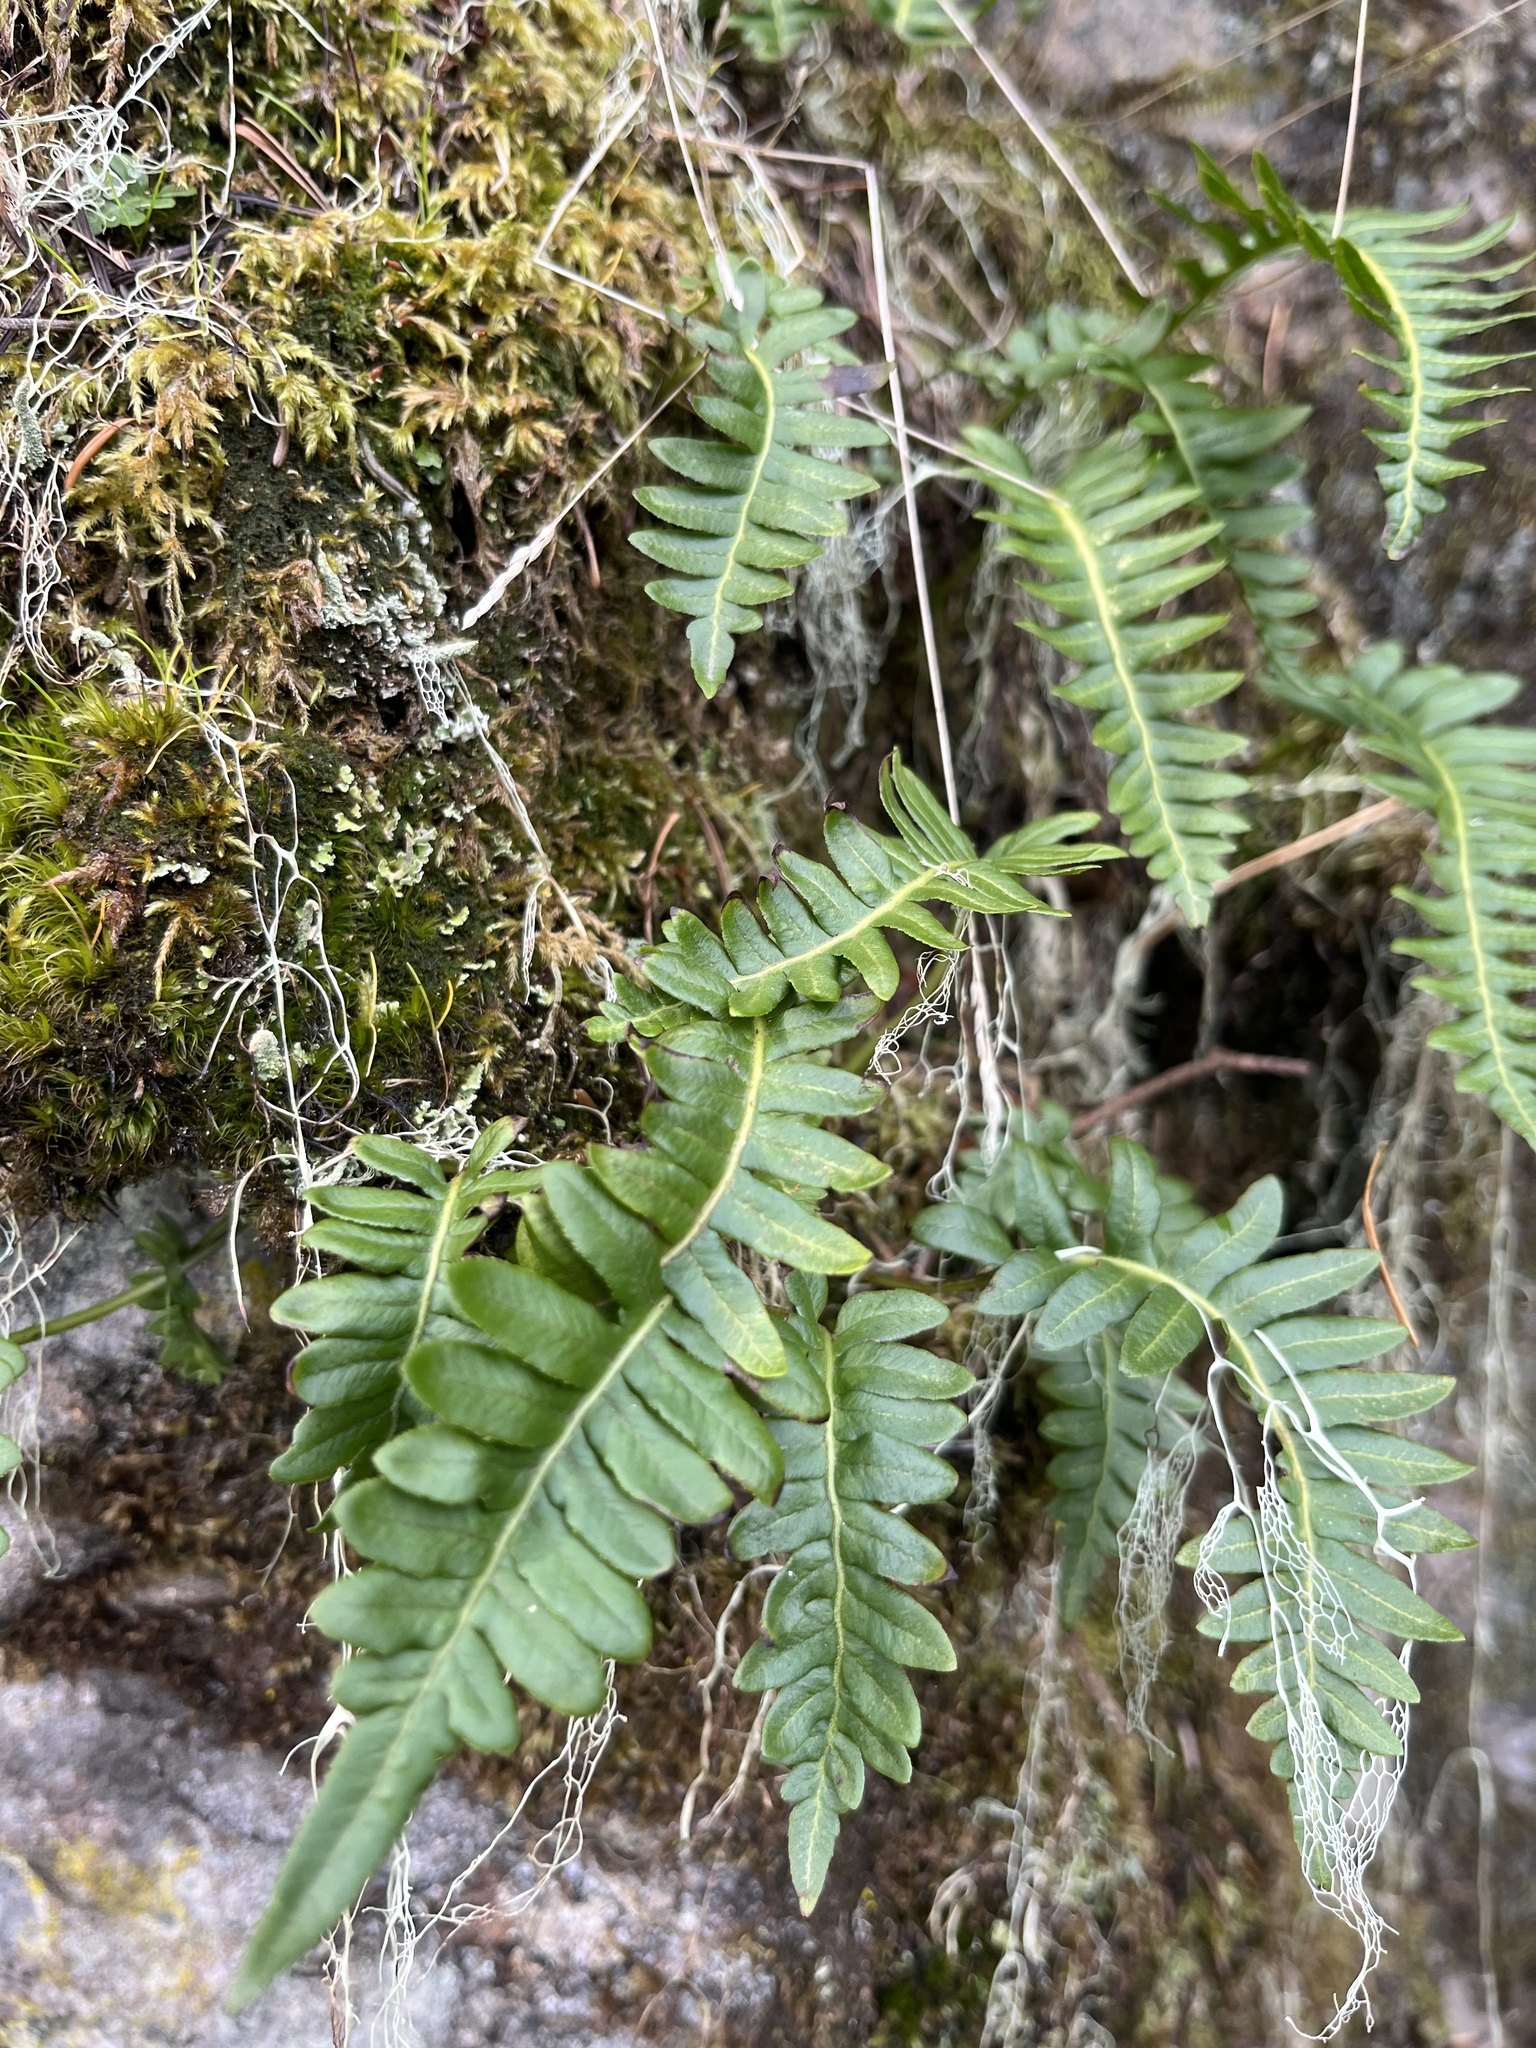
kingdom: Plantae
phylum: Tracheophyta
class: Polypodiopsida
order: Polypodiales
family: Polypodiaceae
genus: Polypodium
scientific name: Polypodium glycyrrhiza
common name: Licorice fern
